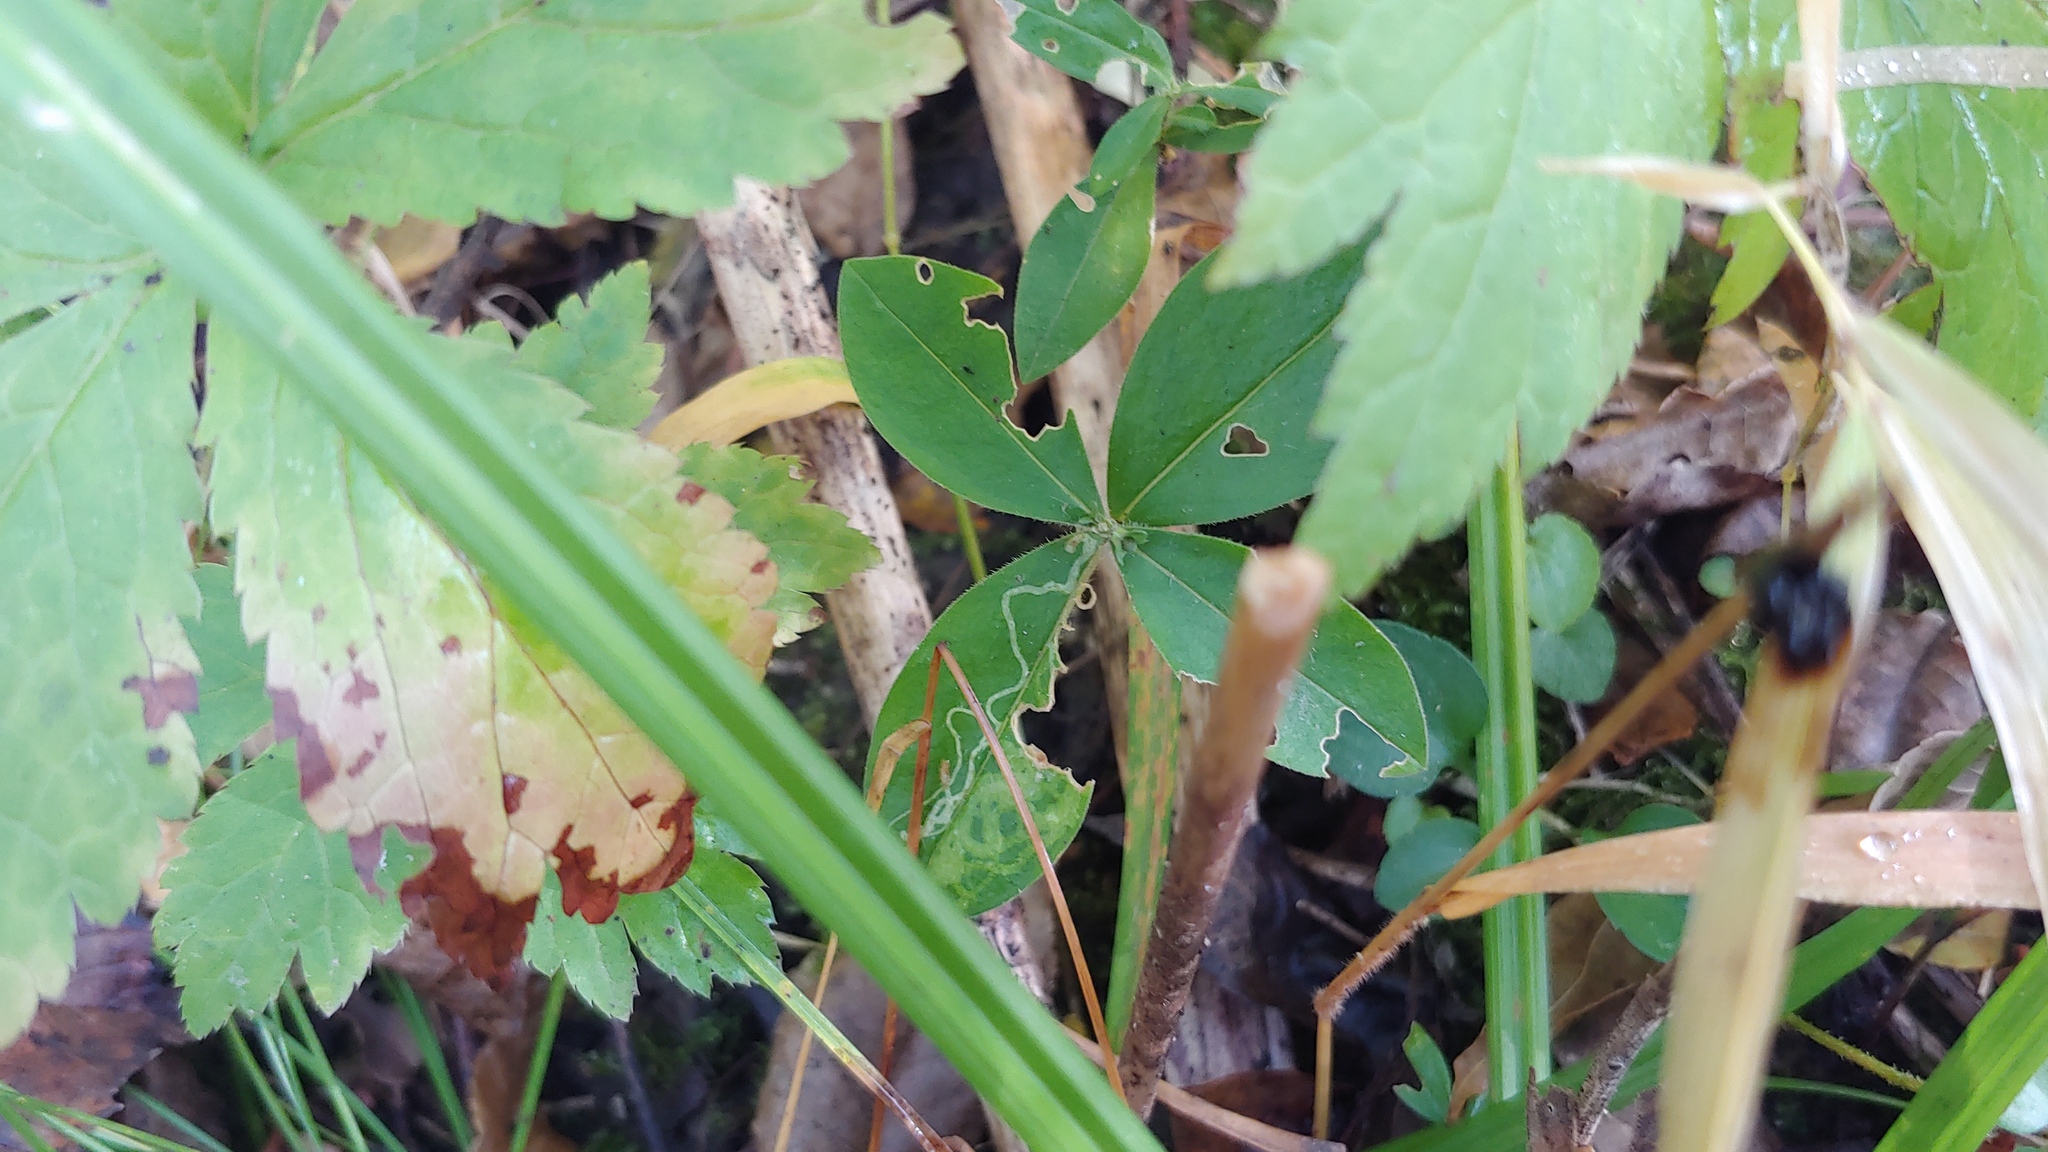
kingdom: Animalia
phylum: Arthropoda
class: Insecta
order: Diptera
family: Agromyzidae
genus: Liriomyza
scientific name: Liriomyza phloxiphaga
